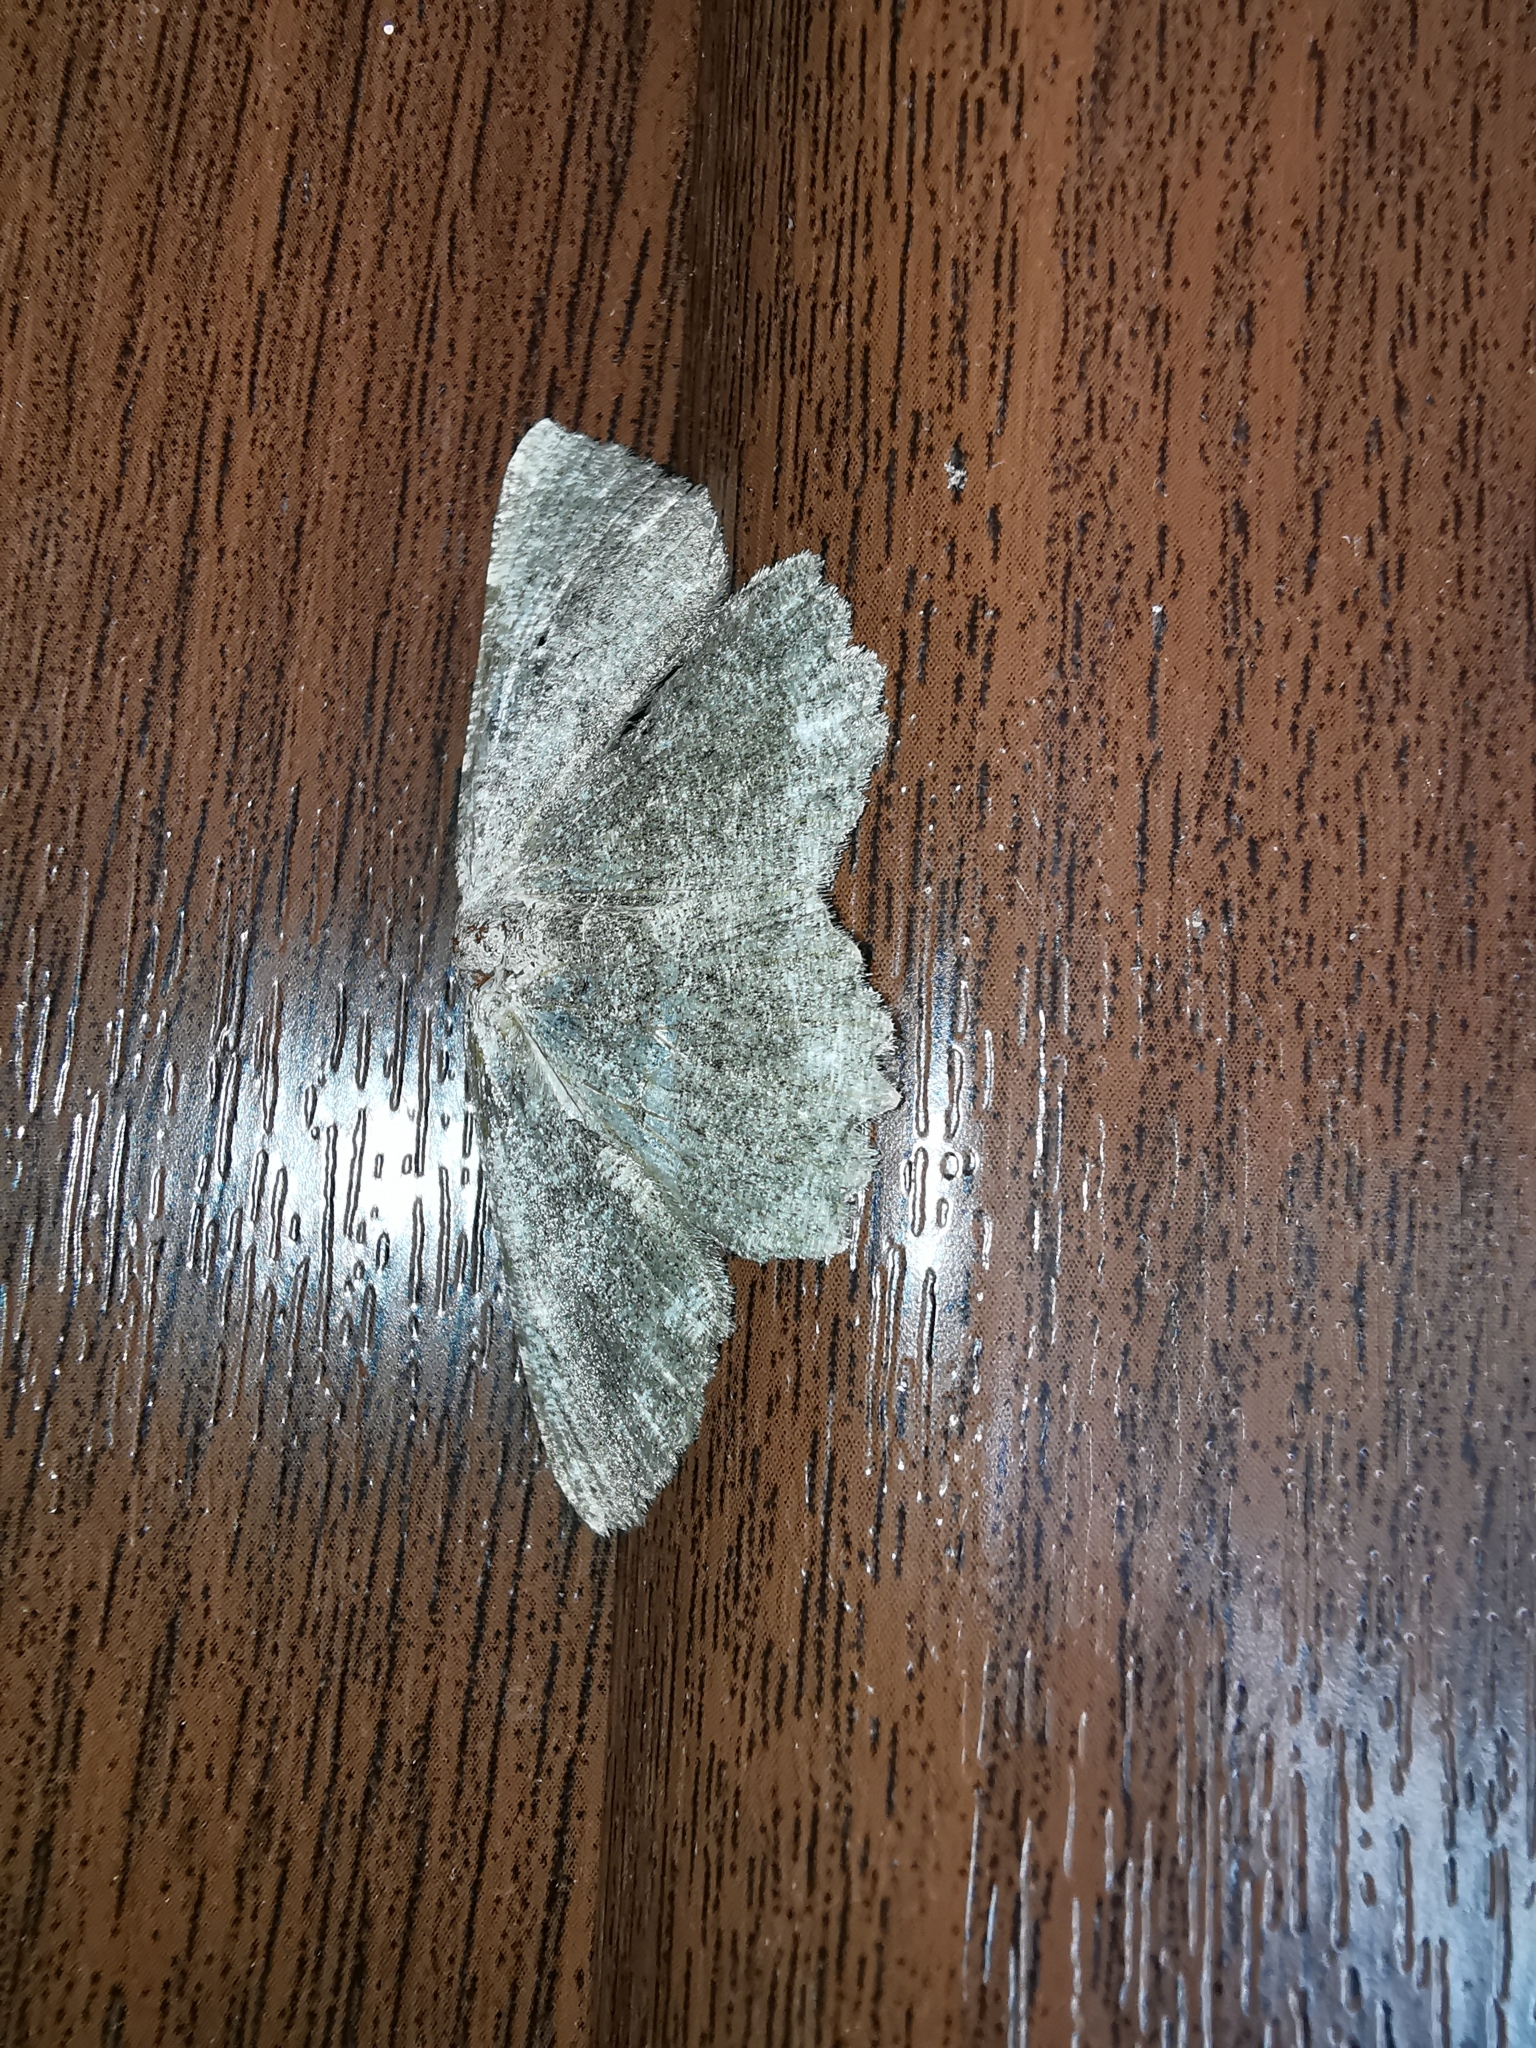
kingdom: Animalia
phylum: Arthropoda
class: Insecta
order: Lepidoptera
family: Geometridae
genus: Gnophos
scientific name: Gnophos sartata
